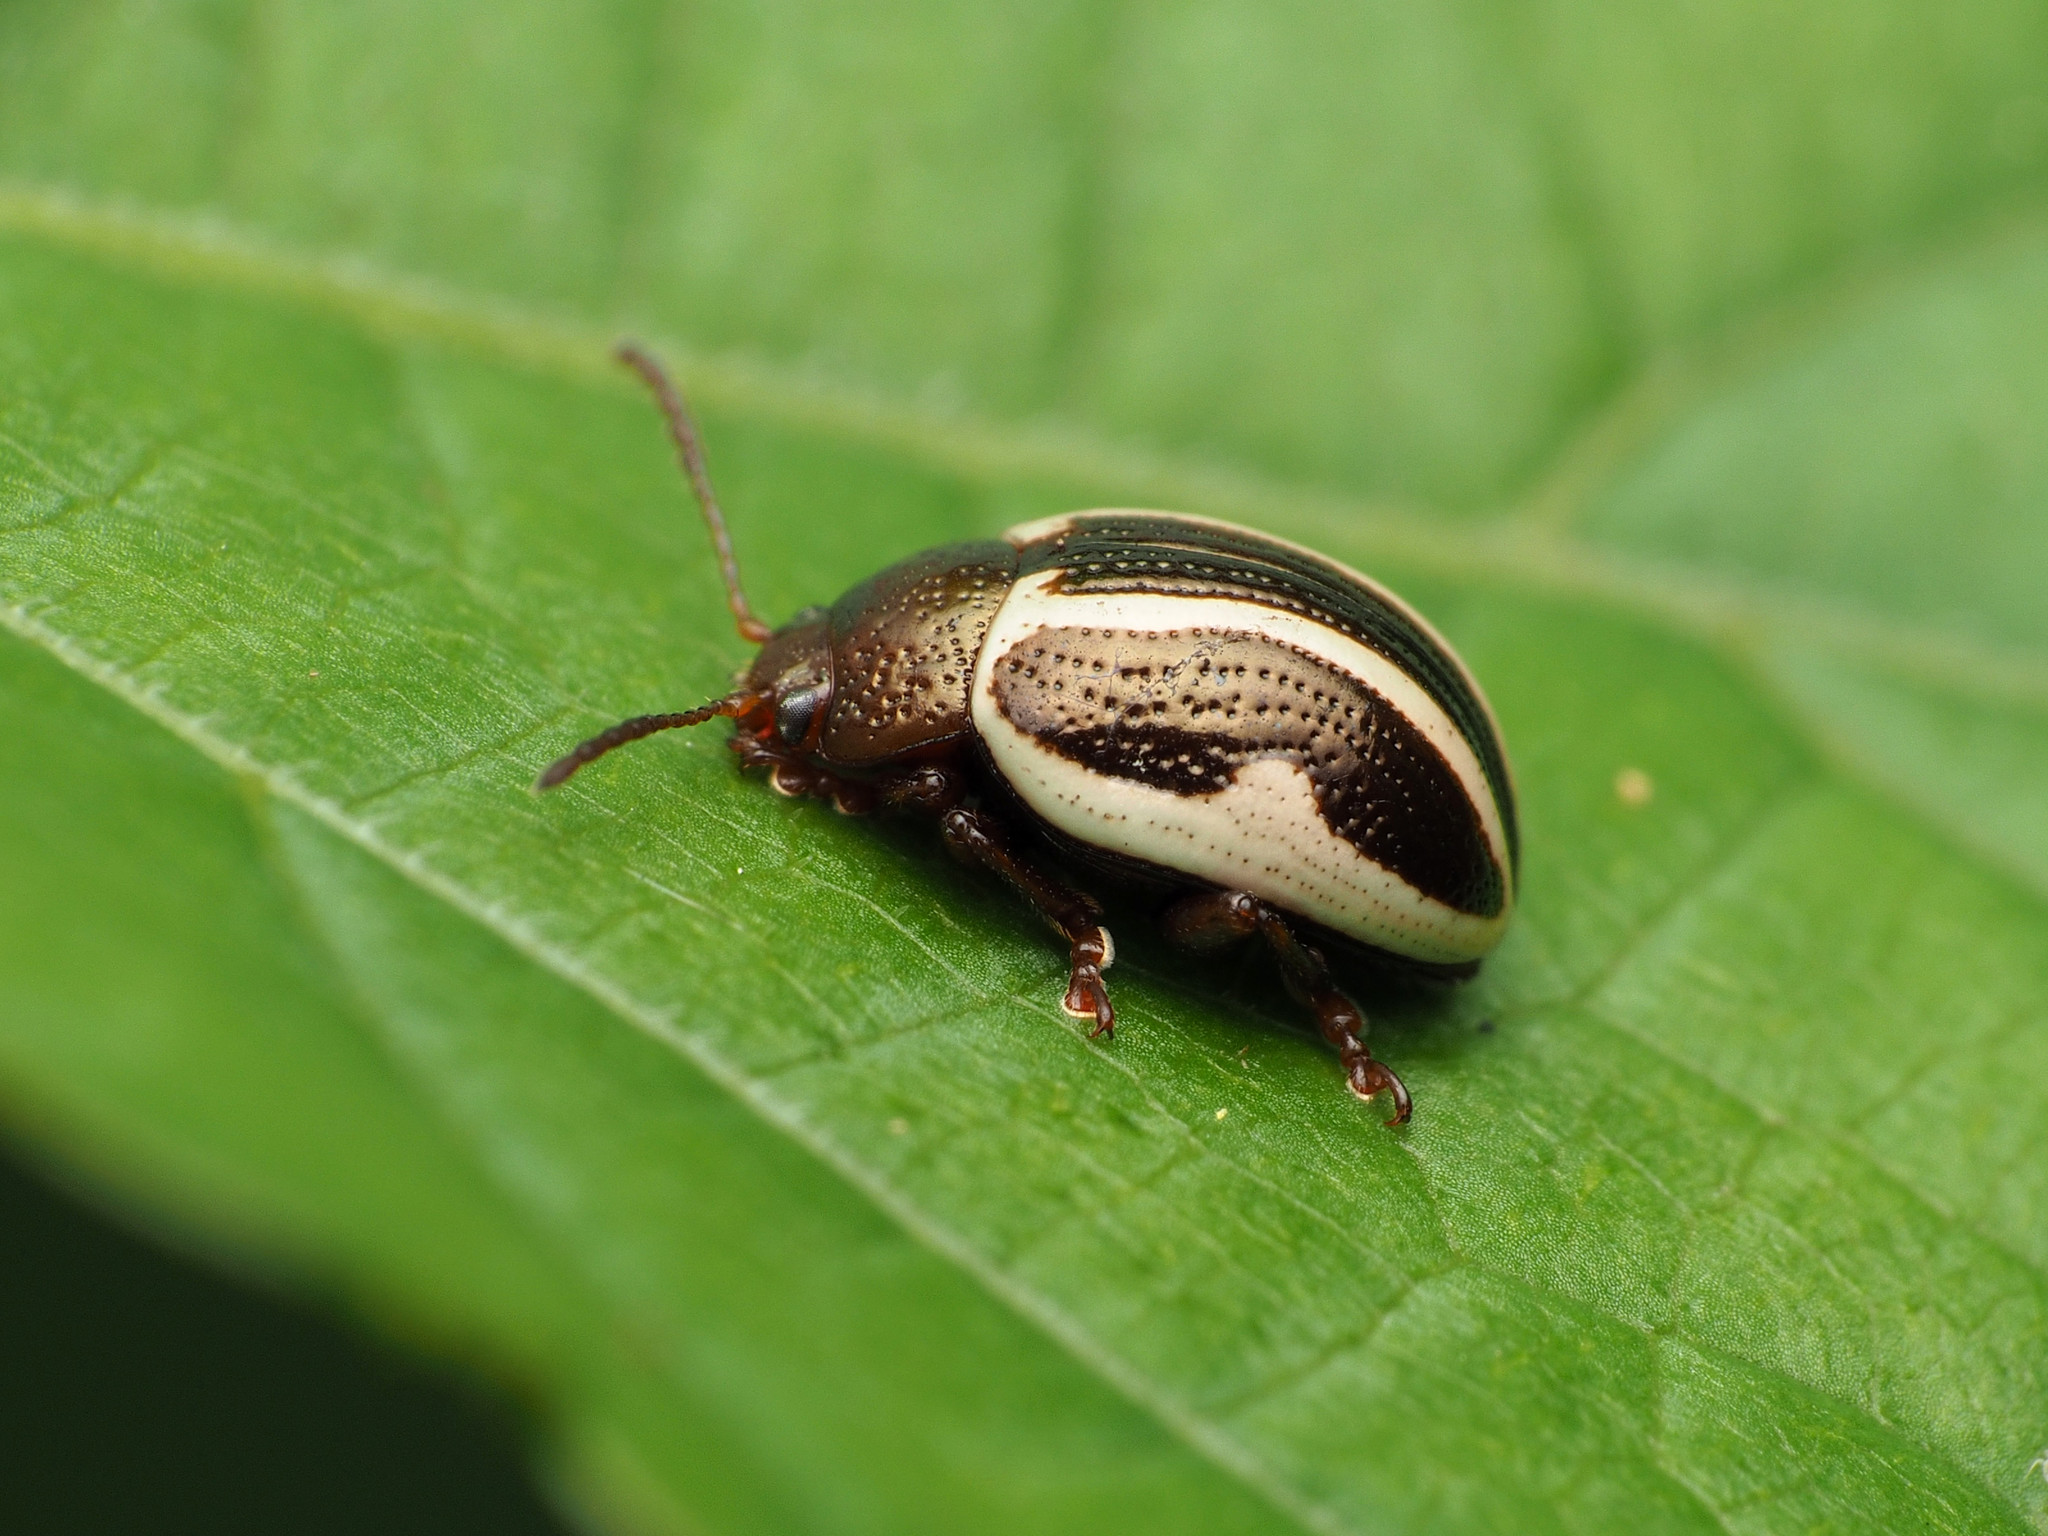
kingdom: Animalia
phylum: Arthropoda
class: Insecta
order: Coleoptera
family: Chrysomelidae
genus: Calligrapha
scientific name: Calligrapha bidenticola
